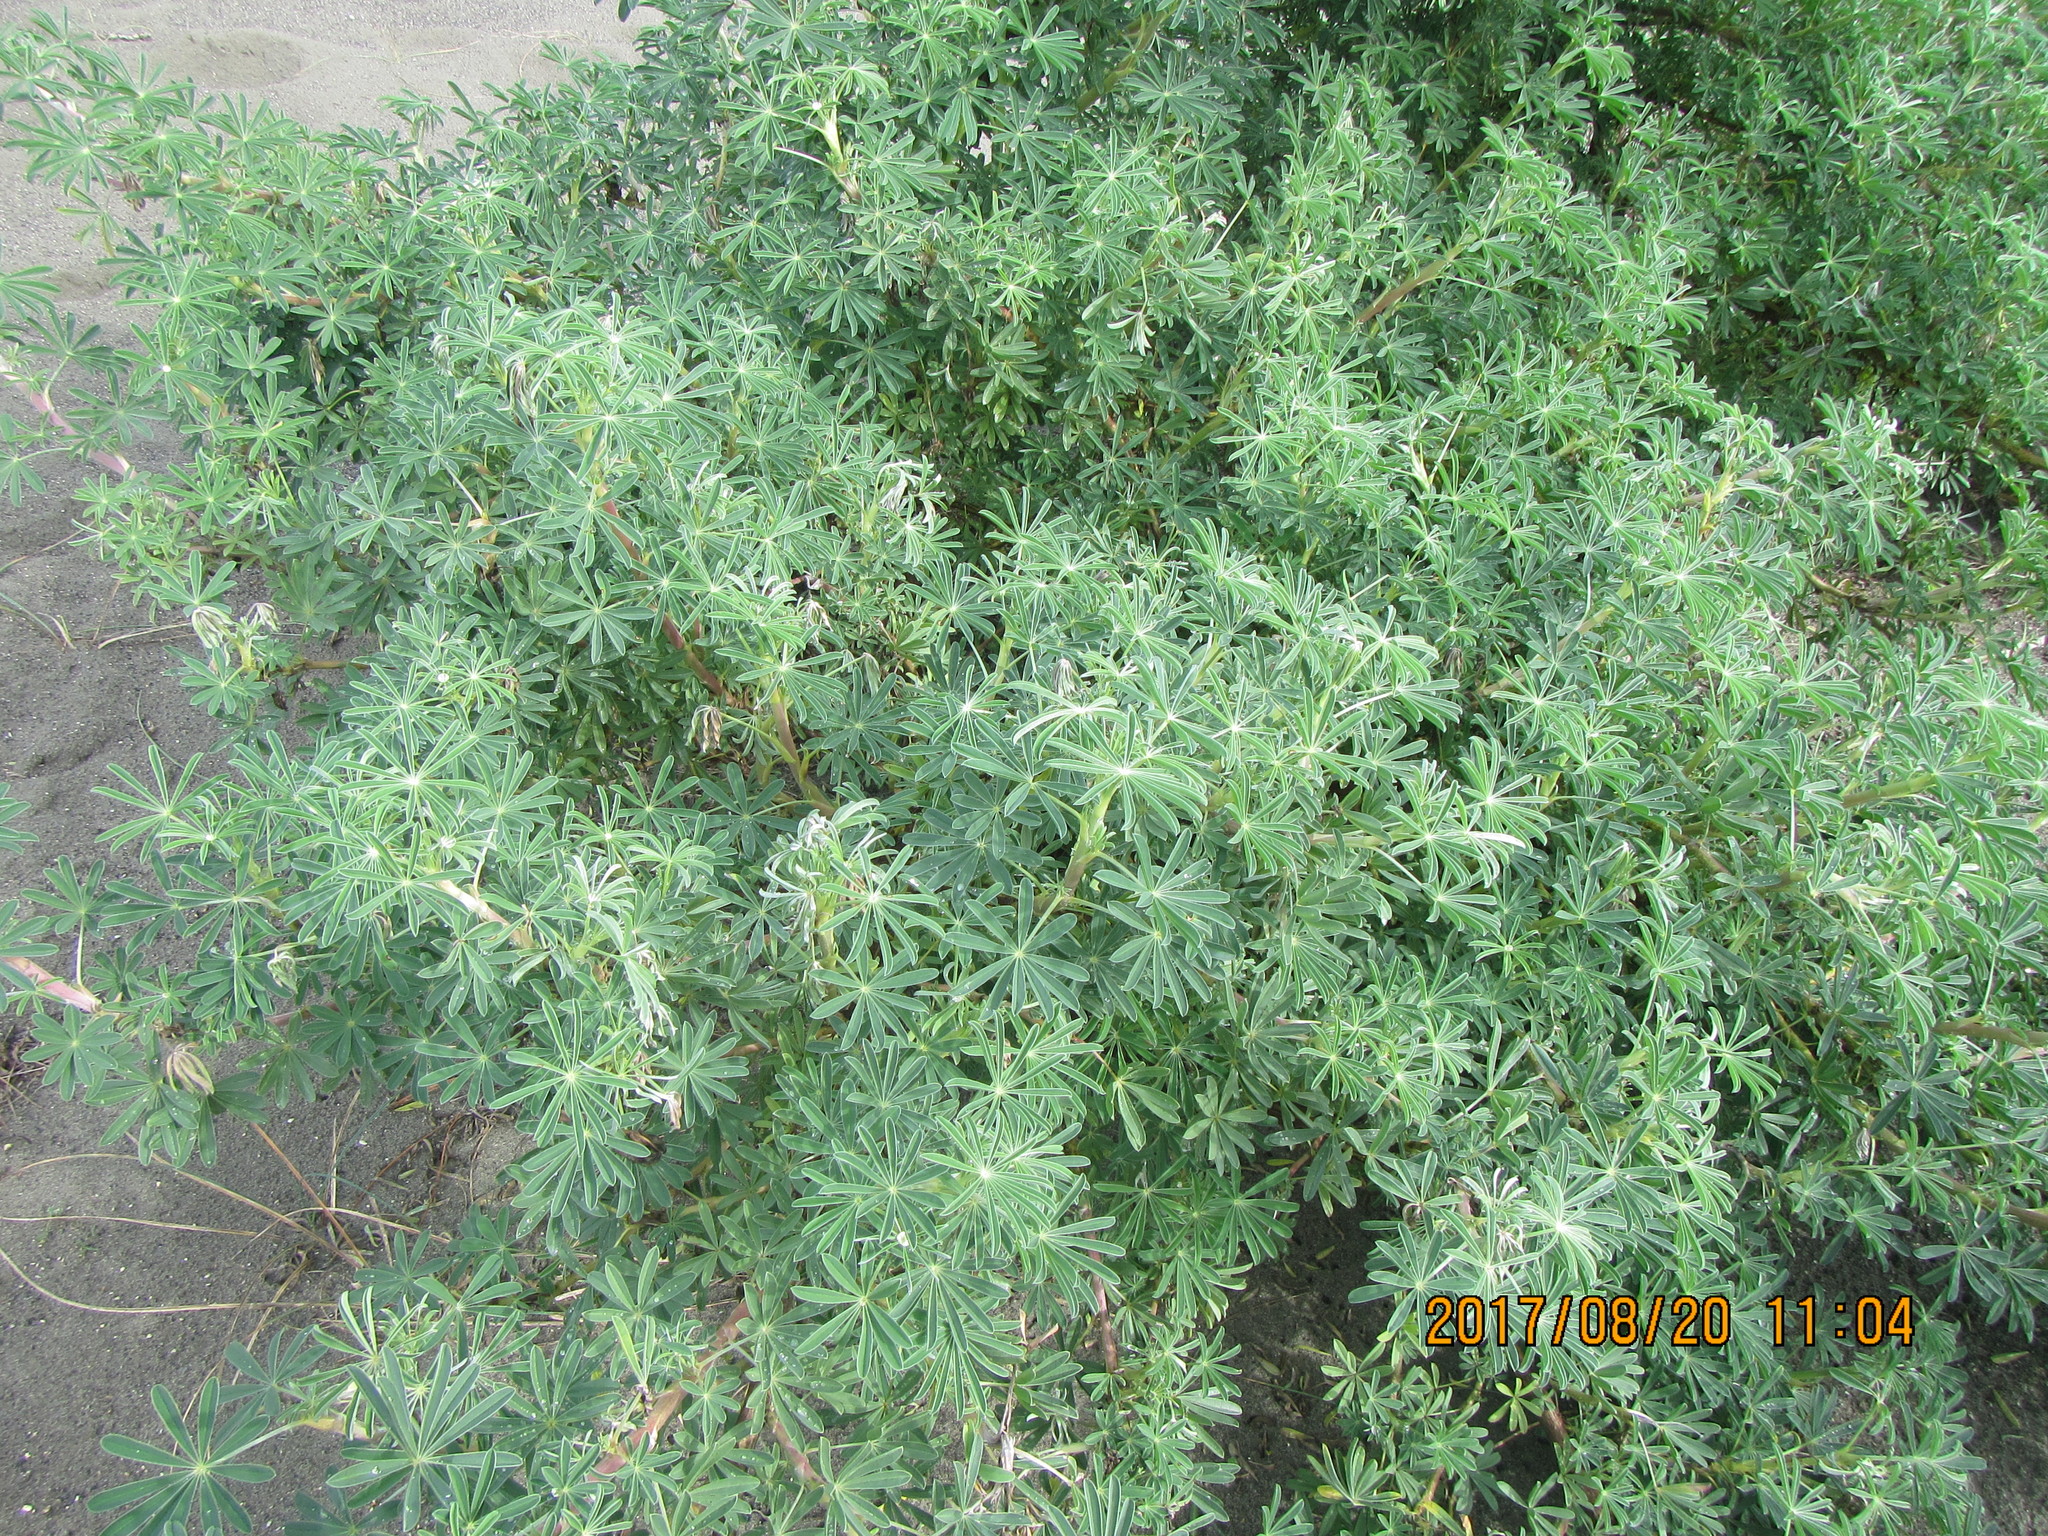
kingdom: Plantae
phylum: Tracheophyta
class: Magnoliopsida
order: Fabales
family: Fabaceae
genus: Lupinus
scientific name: Lupinus arboreus
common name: Yellow bush lupine
